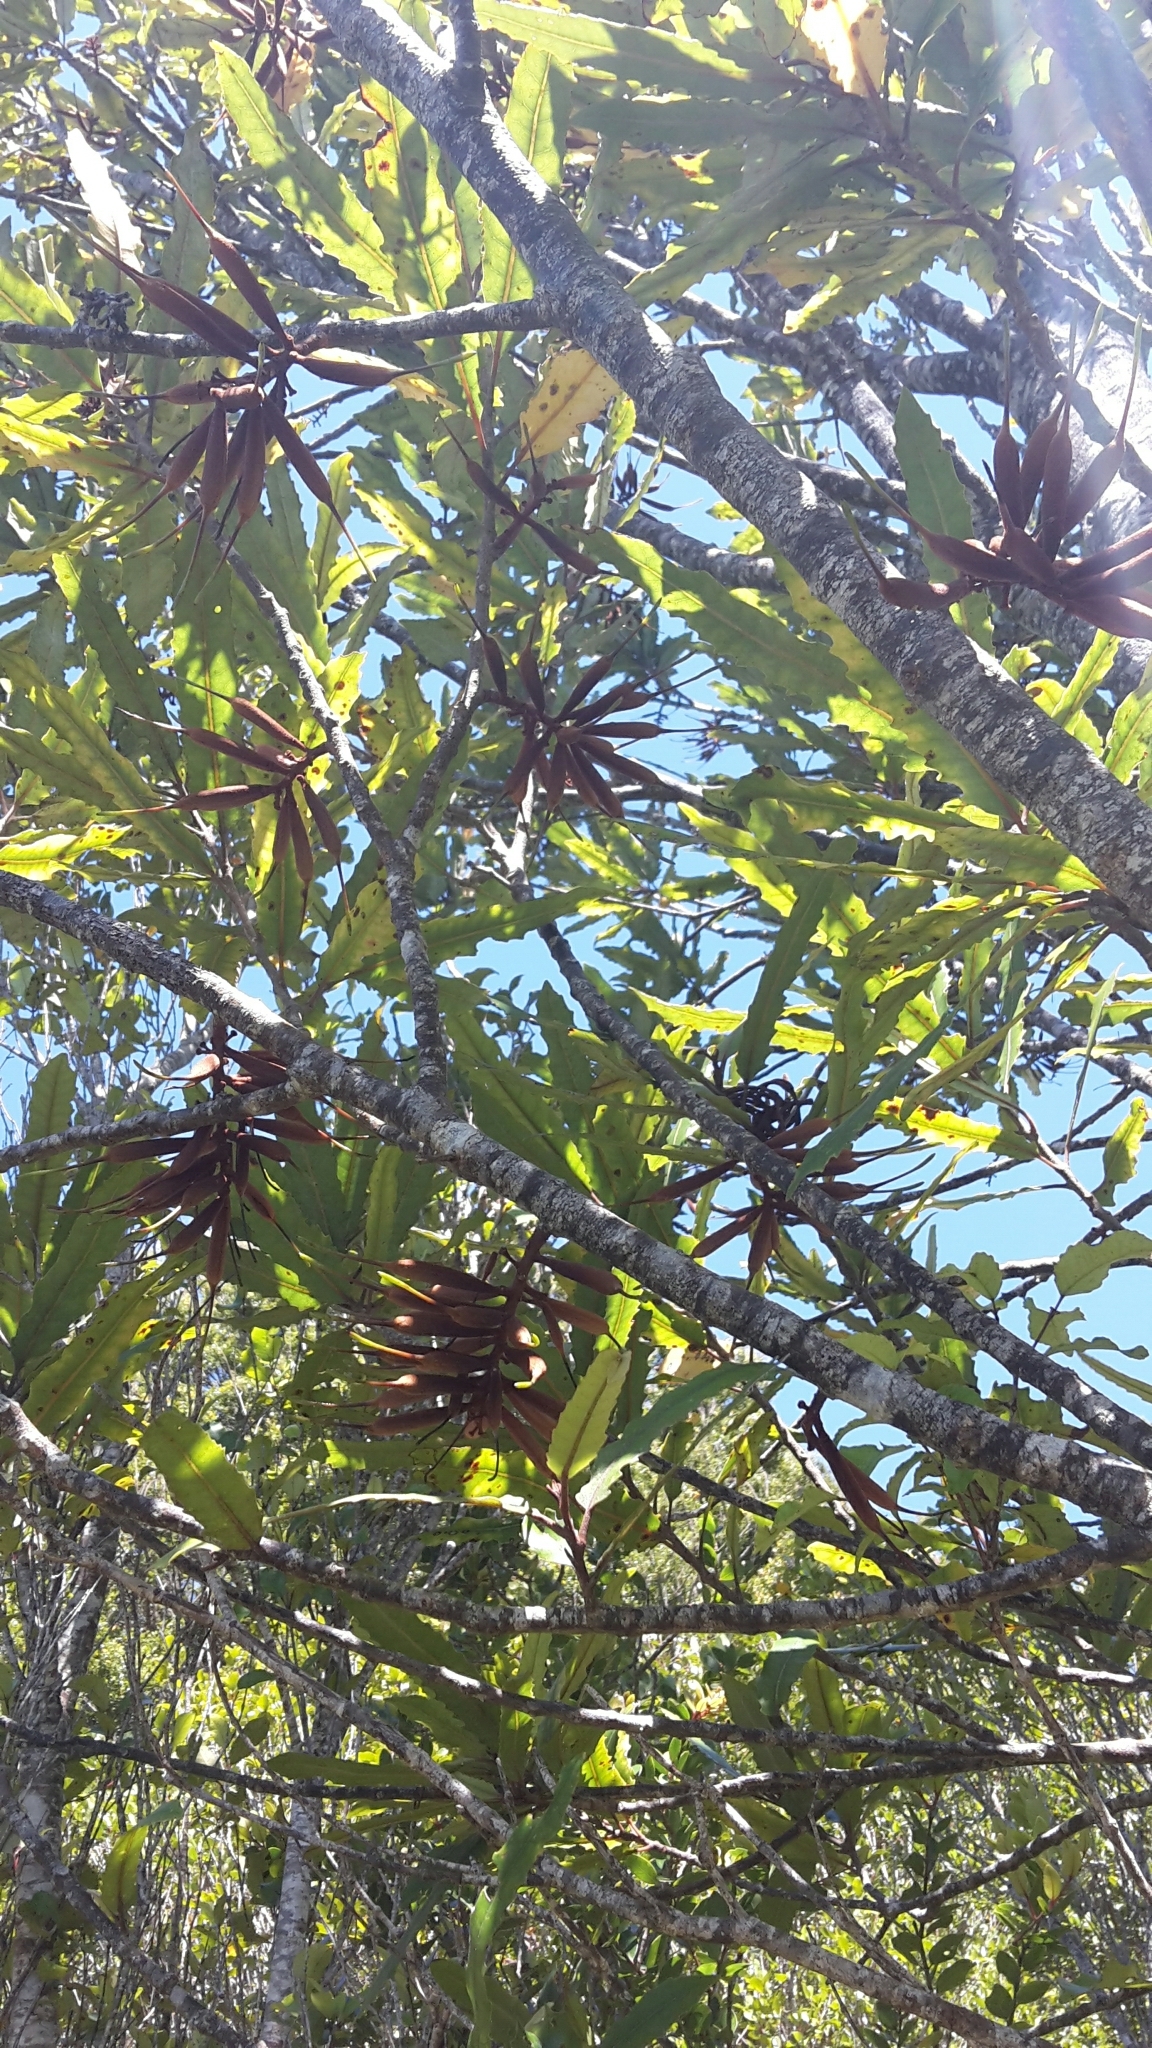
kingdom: Plantae
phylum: Tracheophyta
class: Magnoliopsida
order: Proteales
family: Proteaceae
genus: Knightia
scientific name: Knightia excelsa
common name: New zealand-honeysuckle
